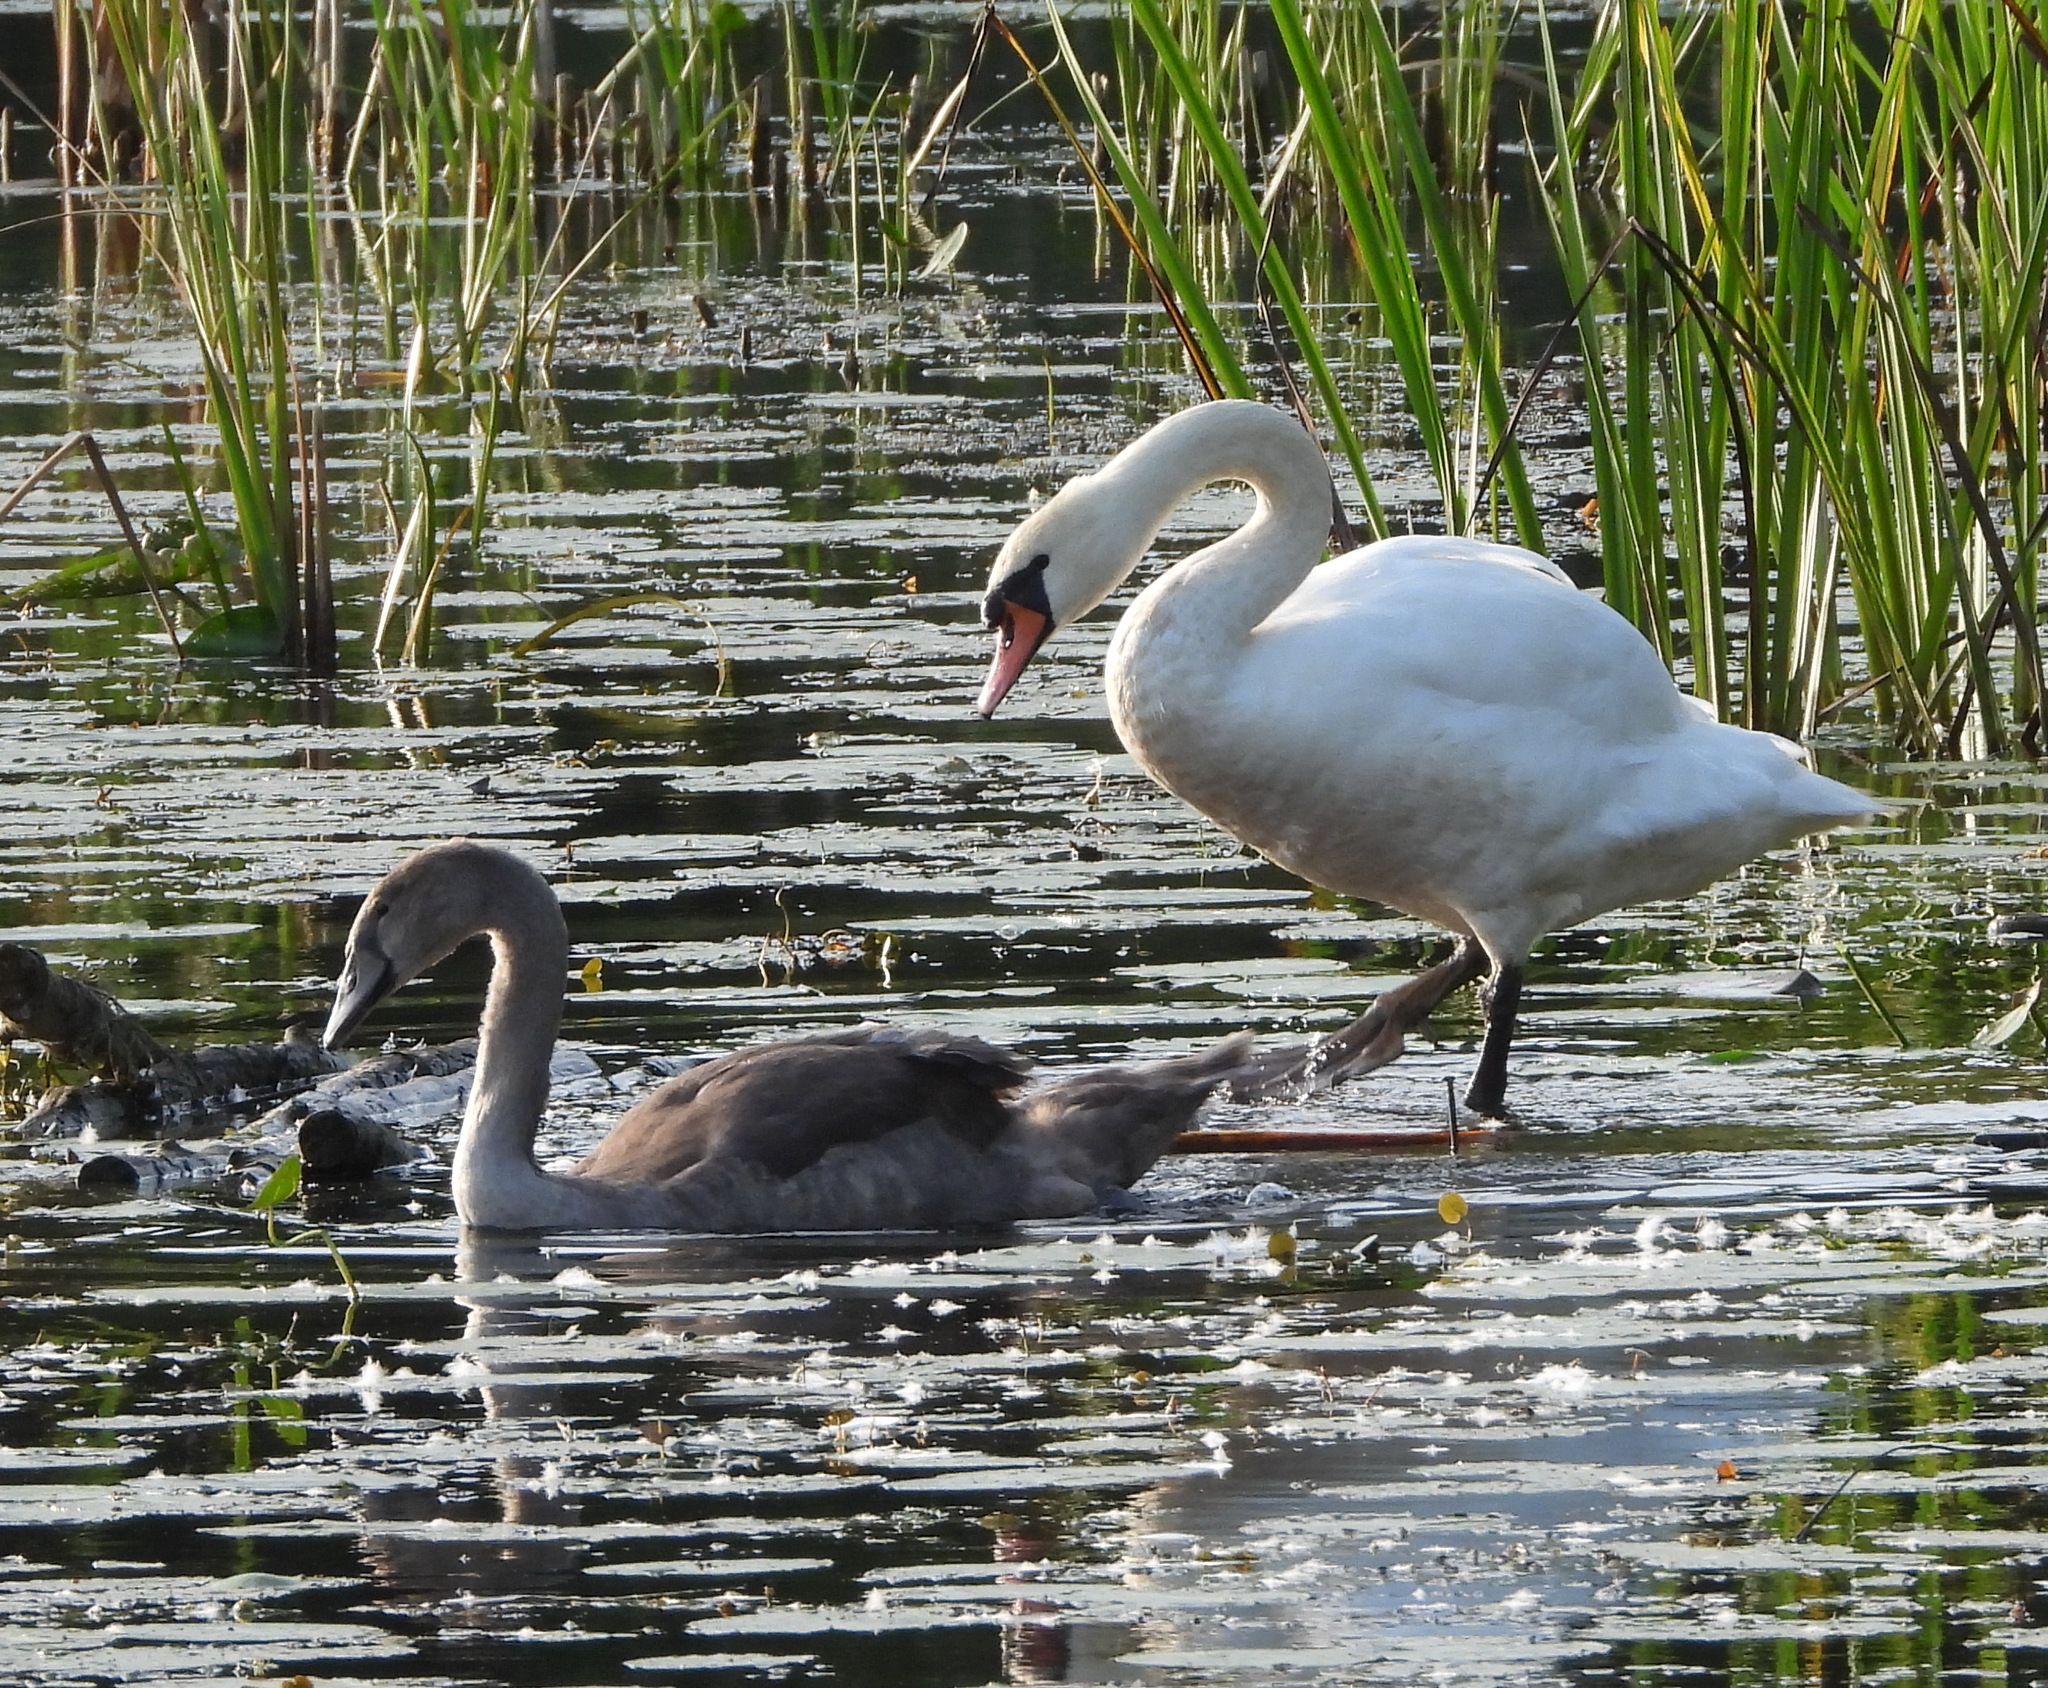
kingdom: Animalia
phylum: Chordata
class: Aves
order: Anseriformes
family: Anatidae
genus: Cygnus
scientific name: Cygnus olor
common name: Mute swan
